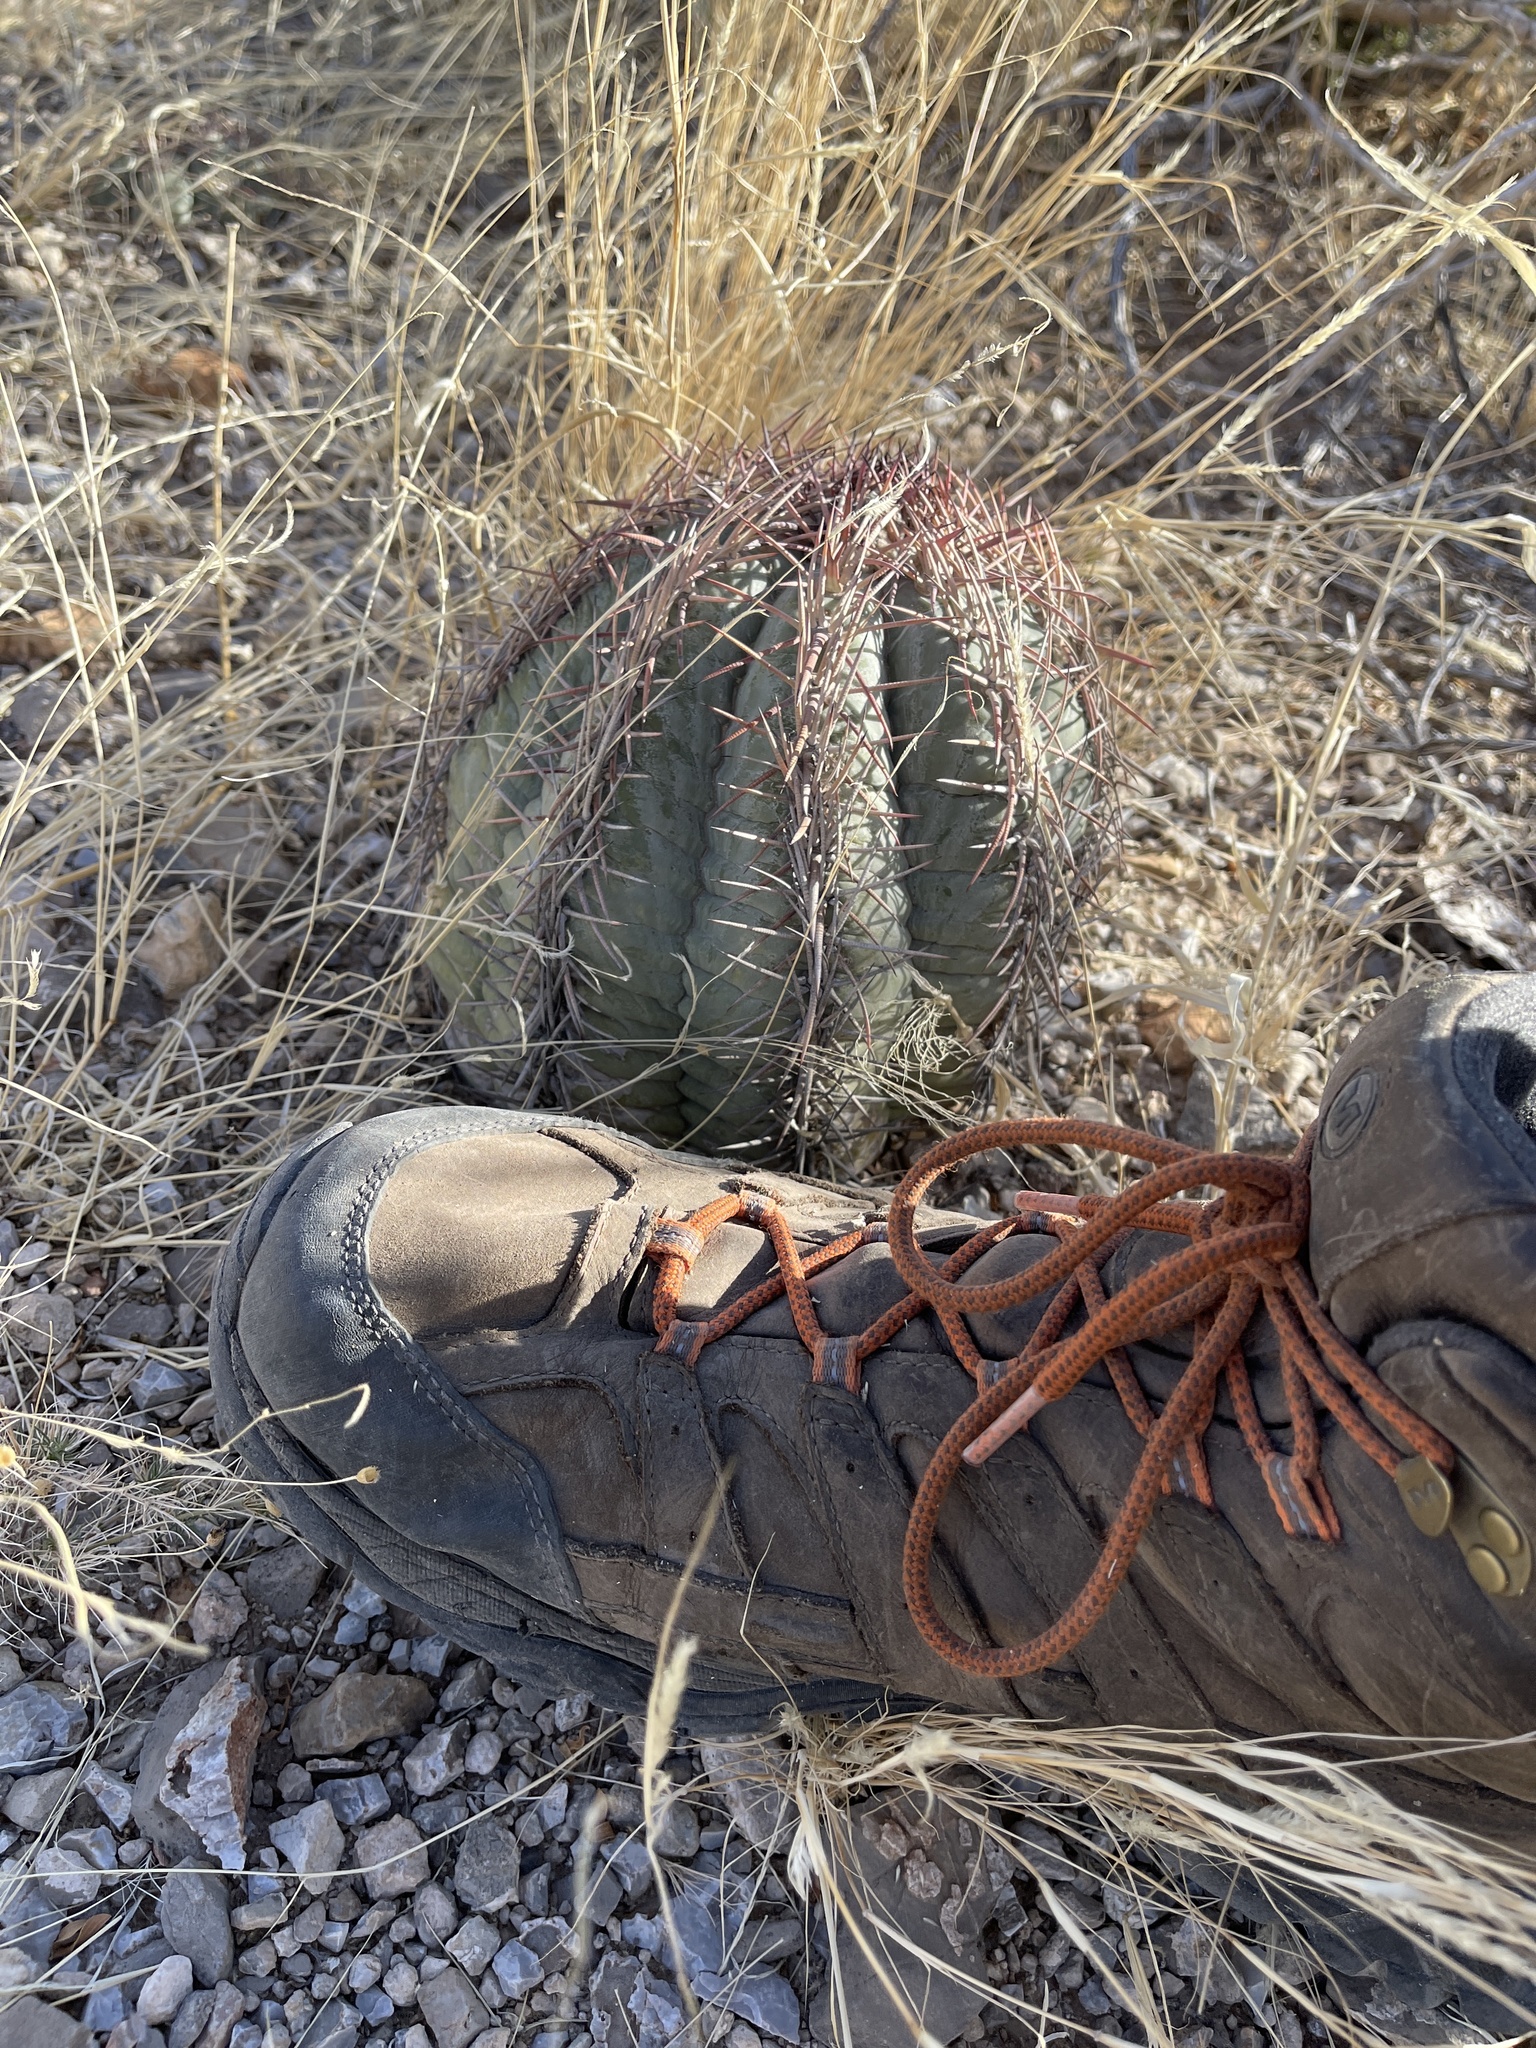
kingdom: Plantae
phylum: Tracheophyta
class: Magnoliopsida
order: Caryophyllales
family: Cactaceae
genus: Echinocactus
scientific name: Echinocactus horizonthalonius
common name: Devilshead
